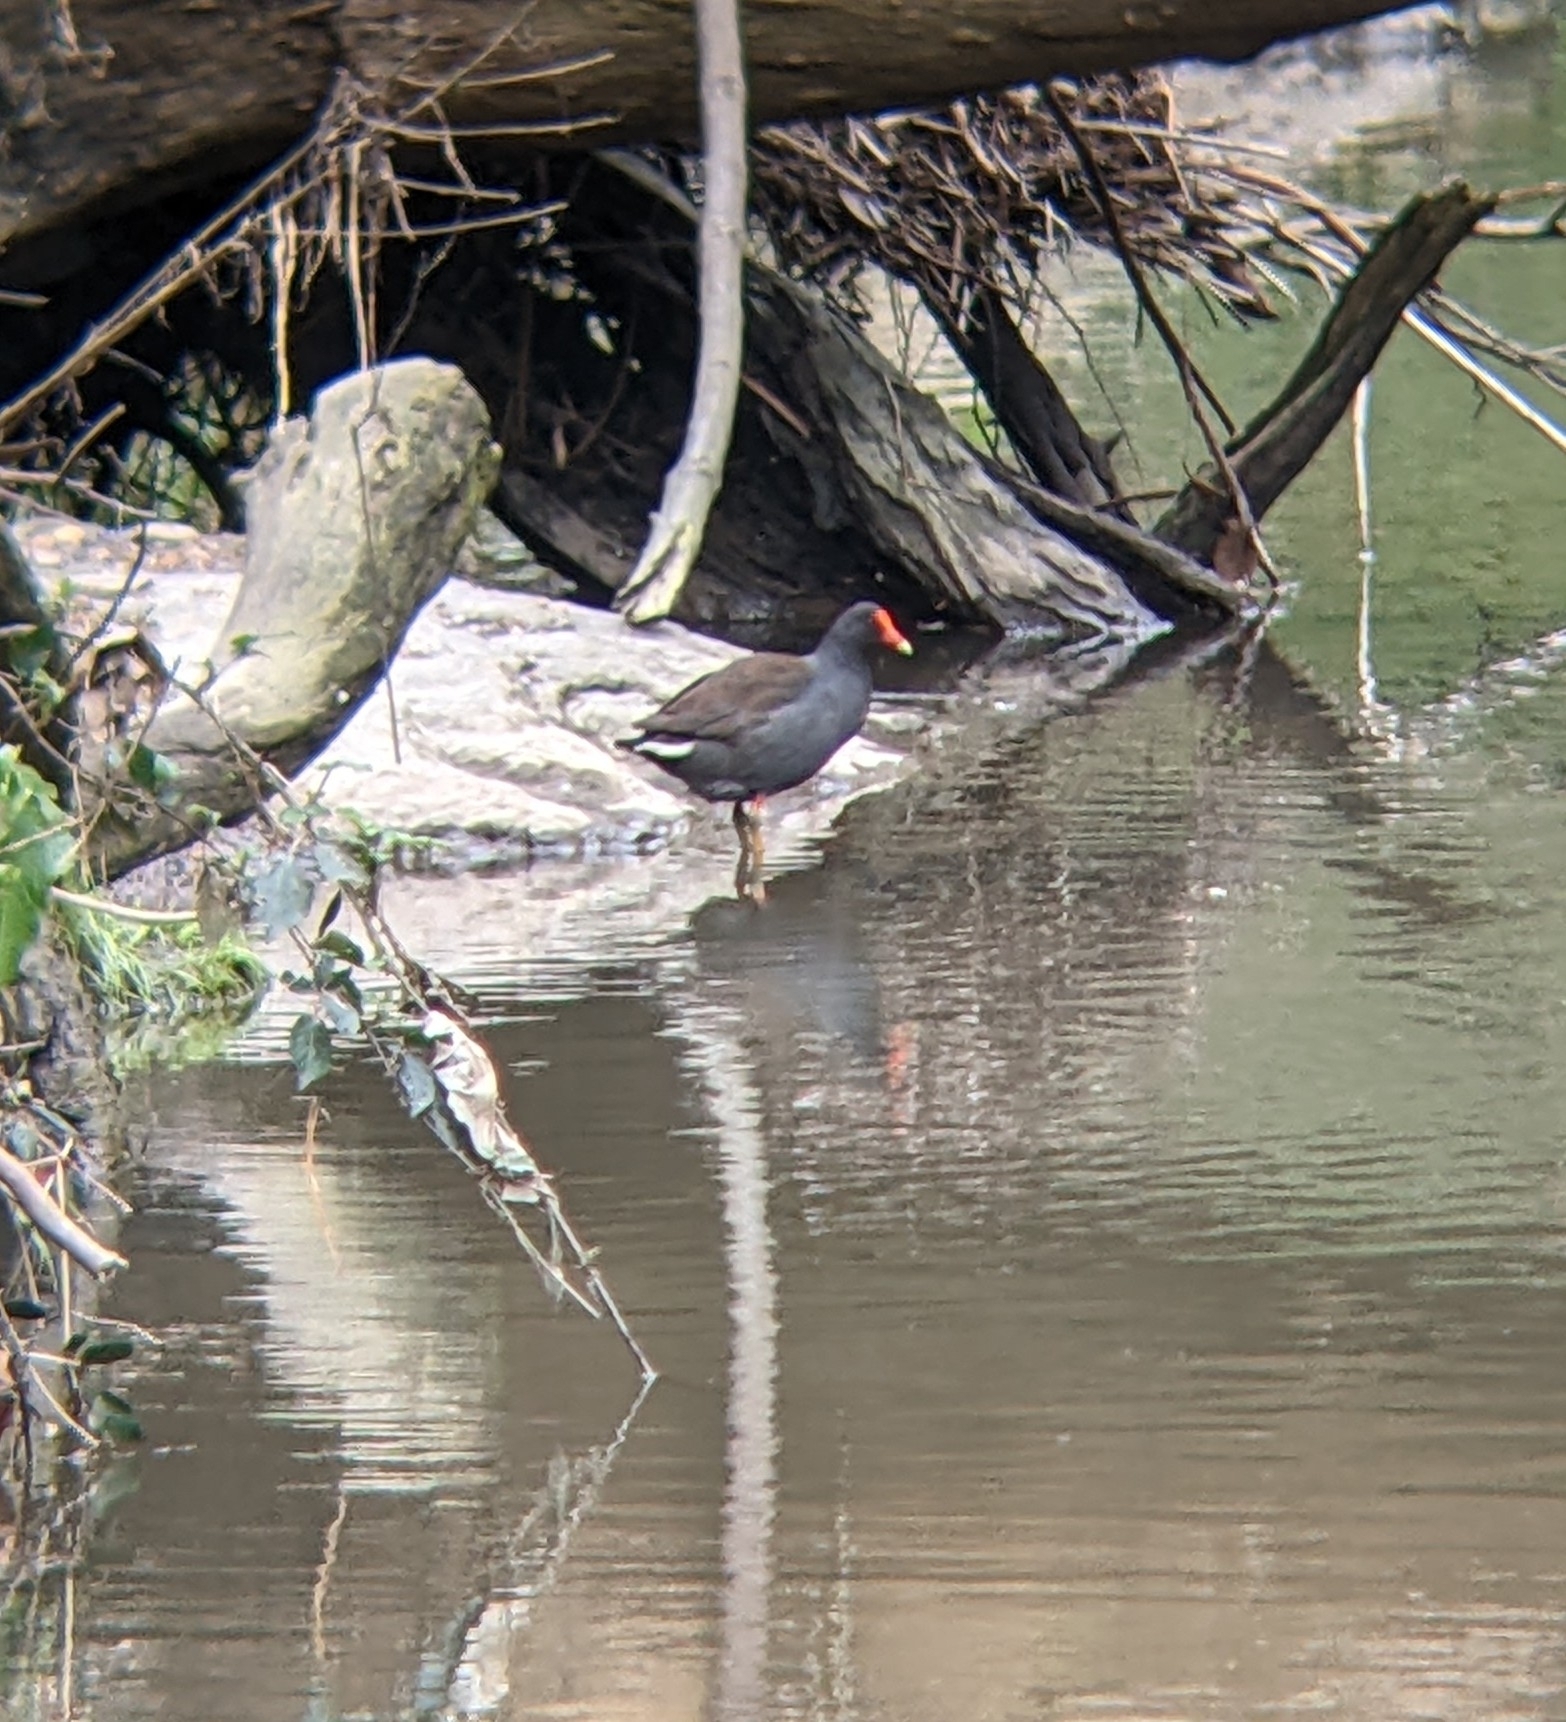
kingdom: Animalia
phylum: Chordata
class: Aves
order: Gruiformes
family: Rallidae
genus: Gallinula
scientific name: Gallinula tenebrosa
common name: Dusky moorhen
